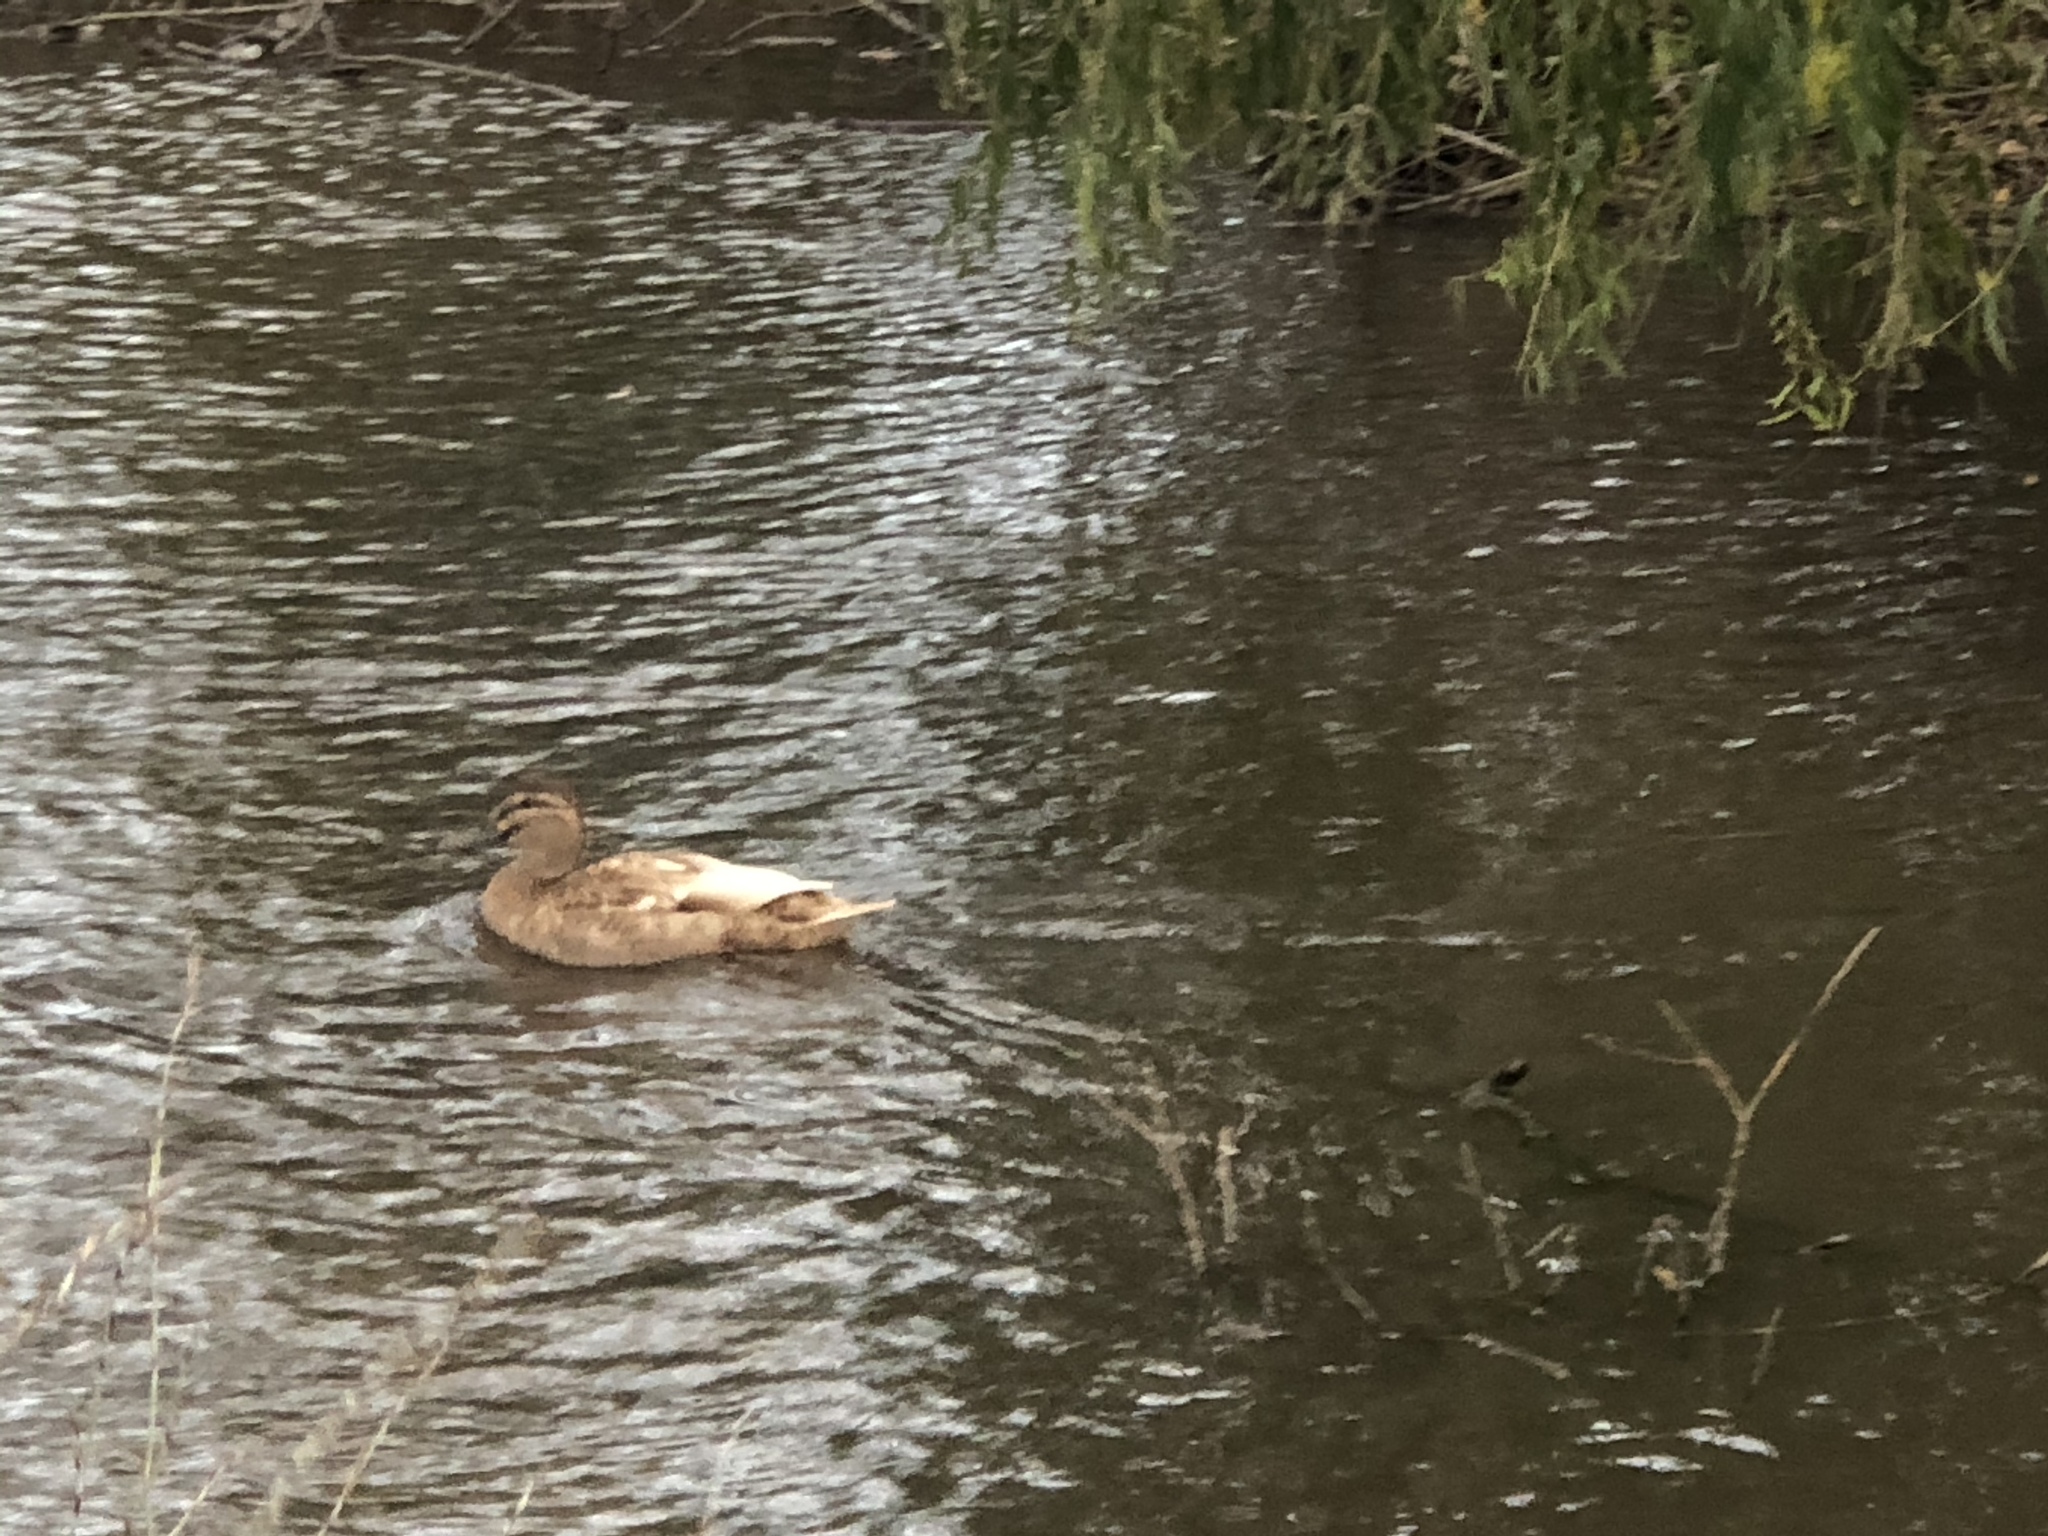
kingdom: Animalia
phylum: Chordata
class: Aves
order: Anseriformes
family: Anatidae
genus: Anas
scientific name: Anas
